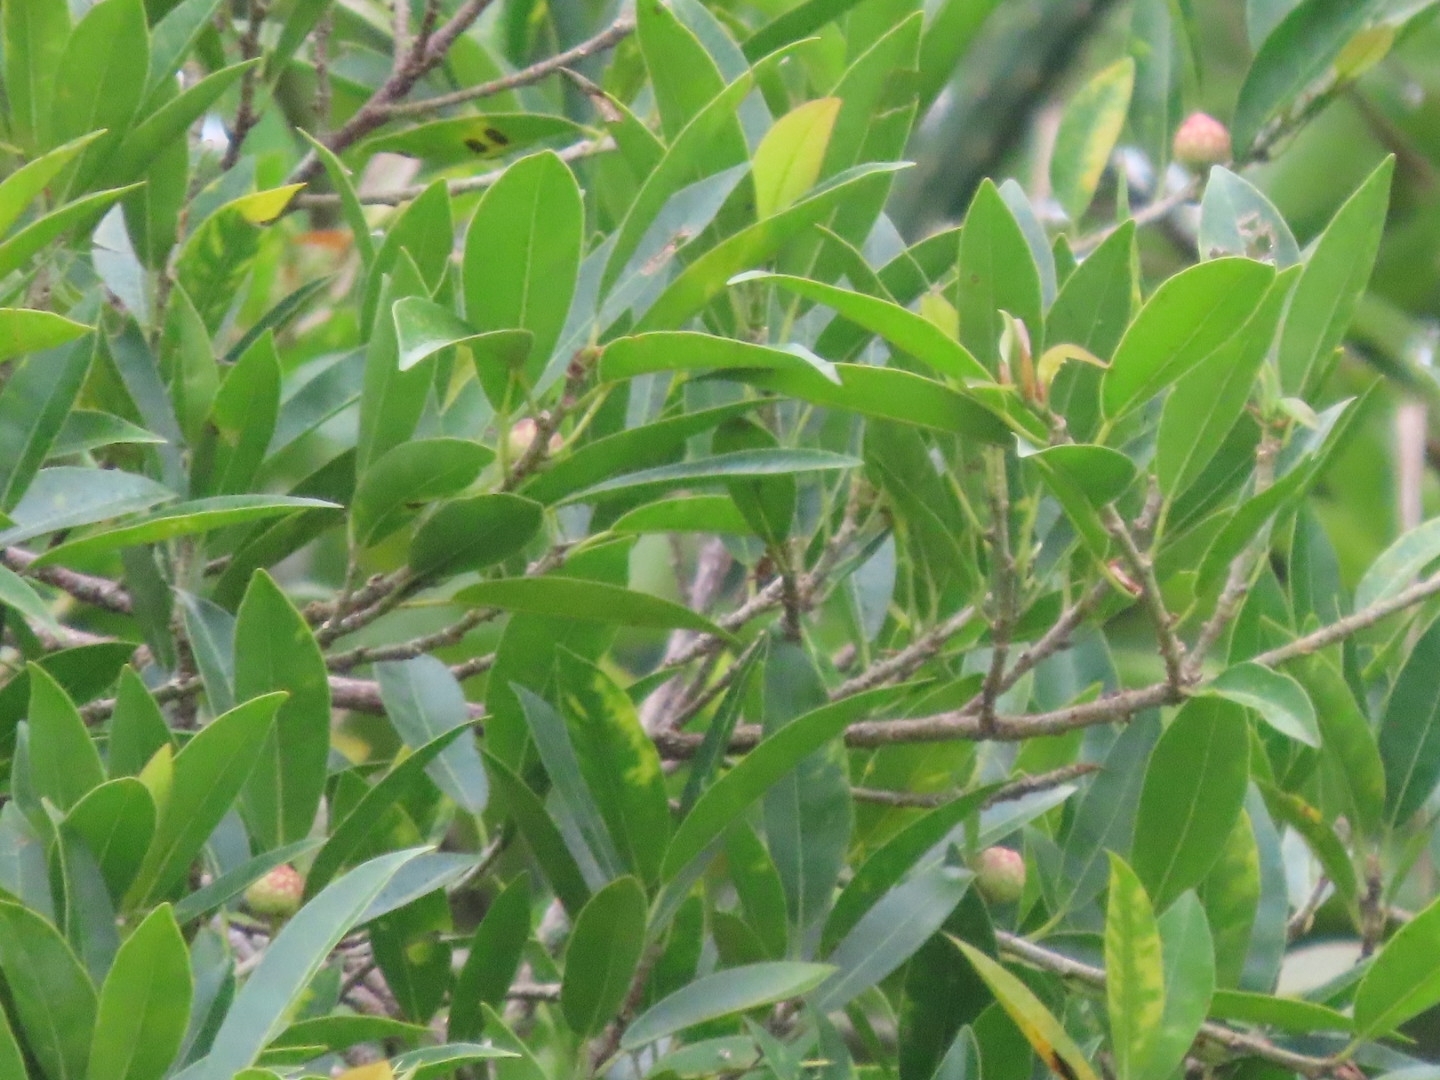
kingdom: Plantae
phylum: Tracheophyta
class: Magnoliopsida
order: Rosales
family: Moraceae
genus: Ficus
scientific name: Ficus pertusa
